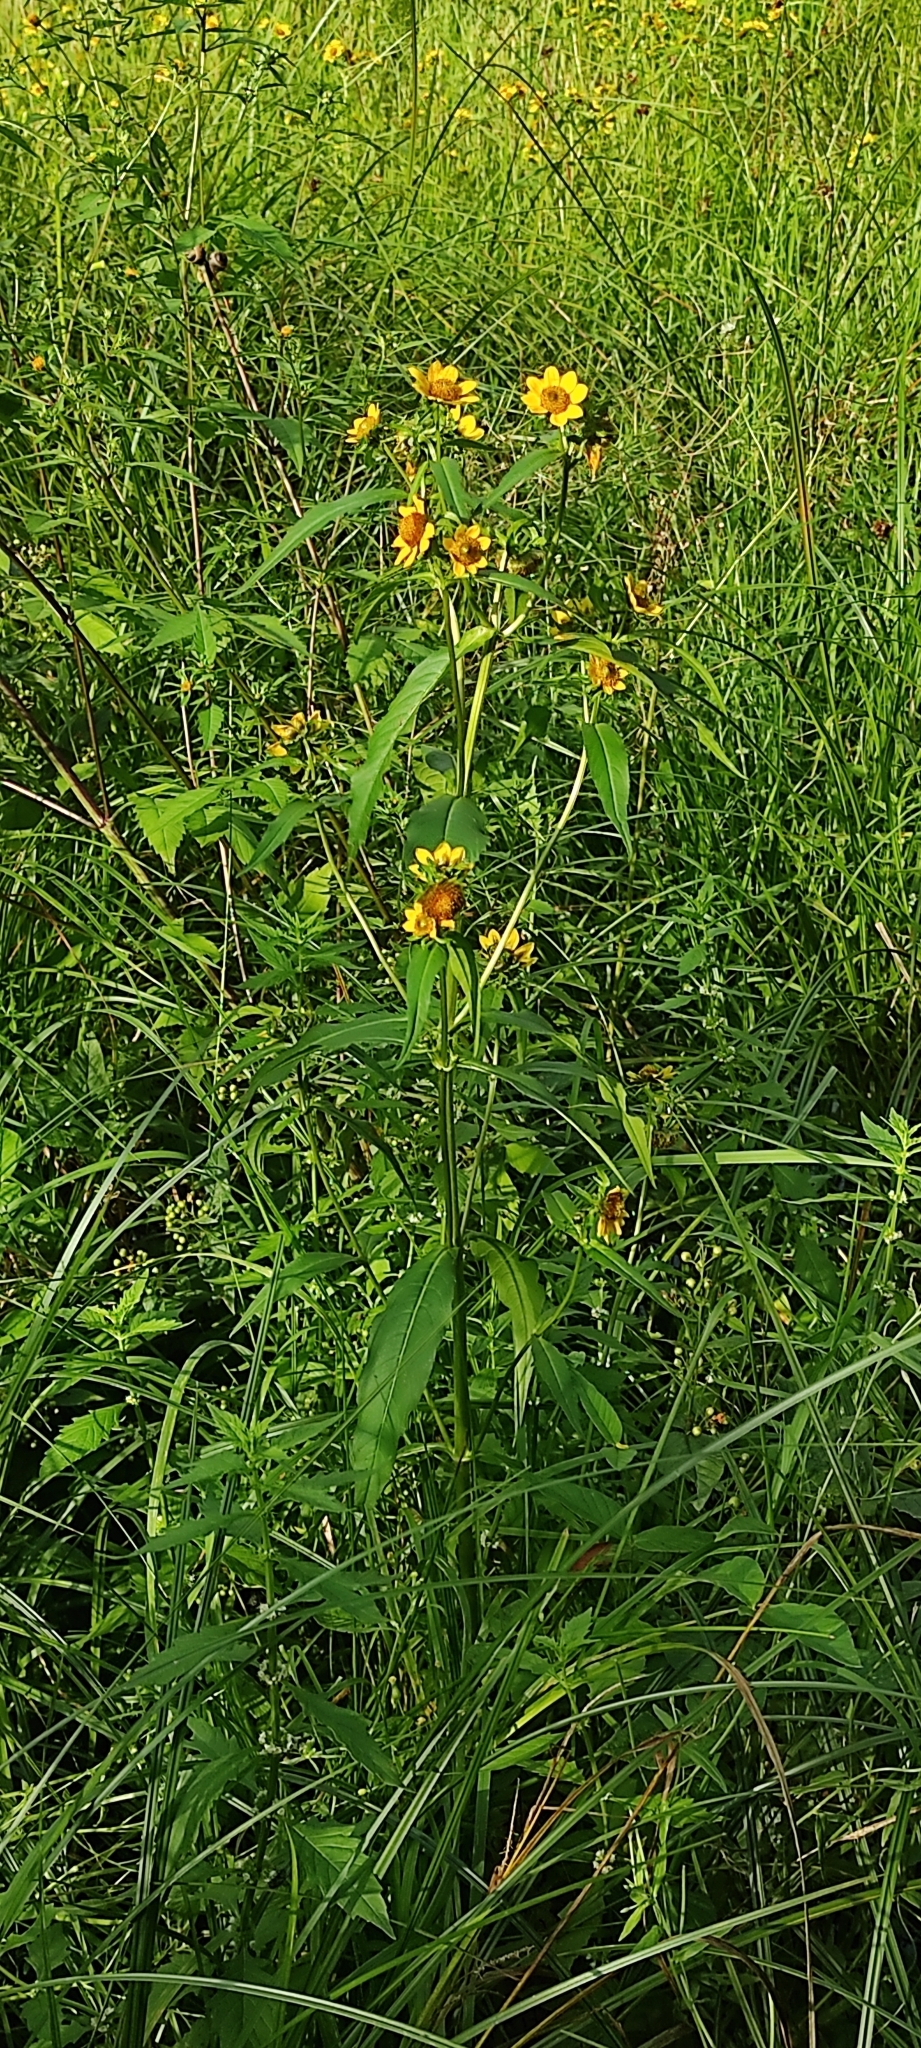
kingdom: Plantae
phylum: Tracheophyta
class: Magnoliopsida
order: Asterales
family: Asteraceae
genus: Bidens
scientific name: Bidens cernua
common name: Nodding bur-marigold
